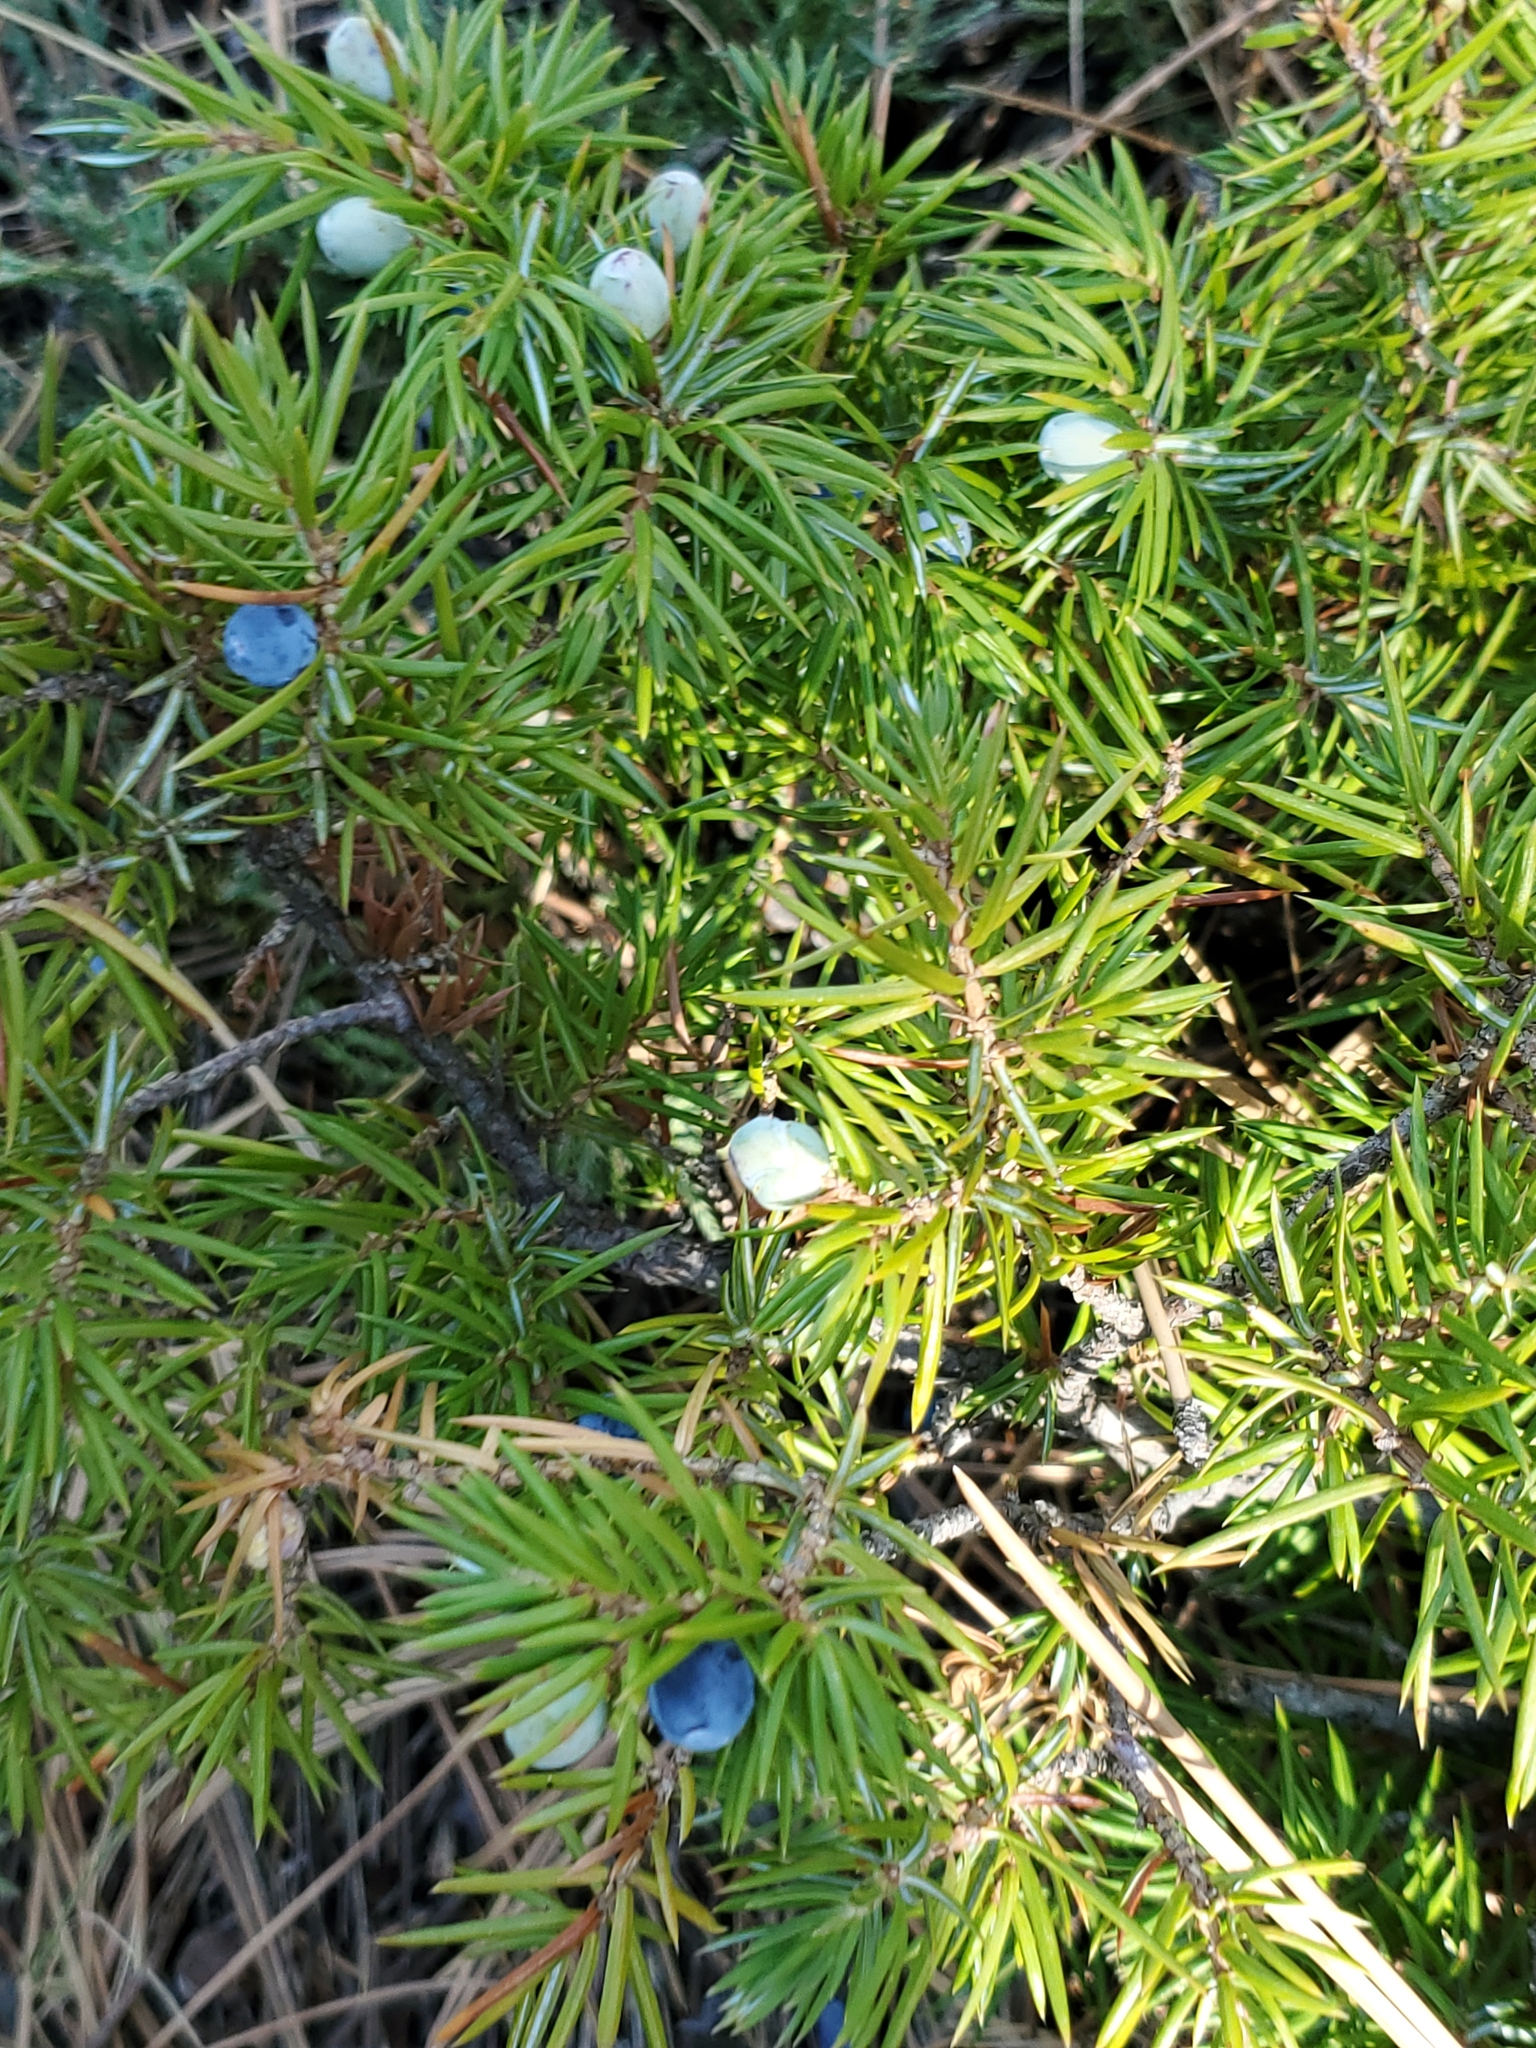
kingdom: Plantae
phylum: Tracheophyta
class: Pinopsida
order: Pinales
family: Cupressaceae
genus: Juniperus
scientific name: Juniperus communis
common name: Common juniper
